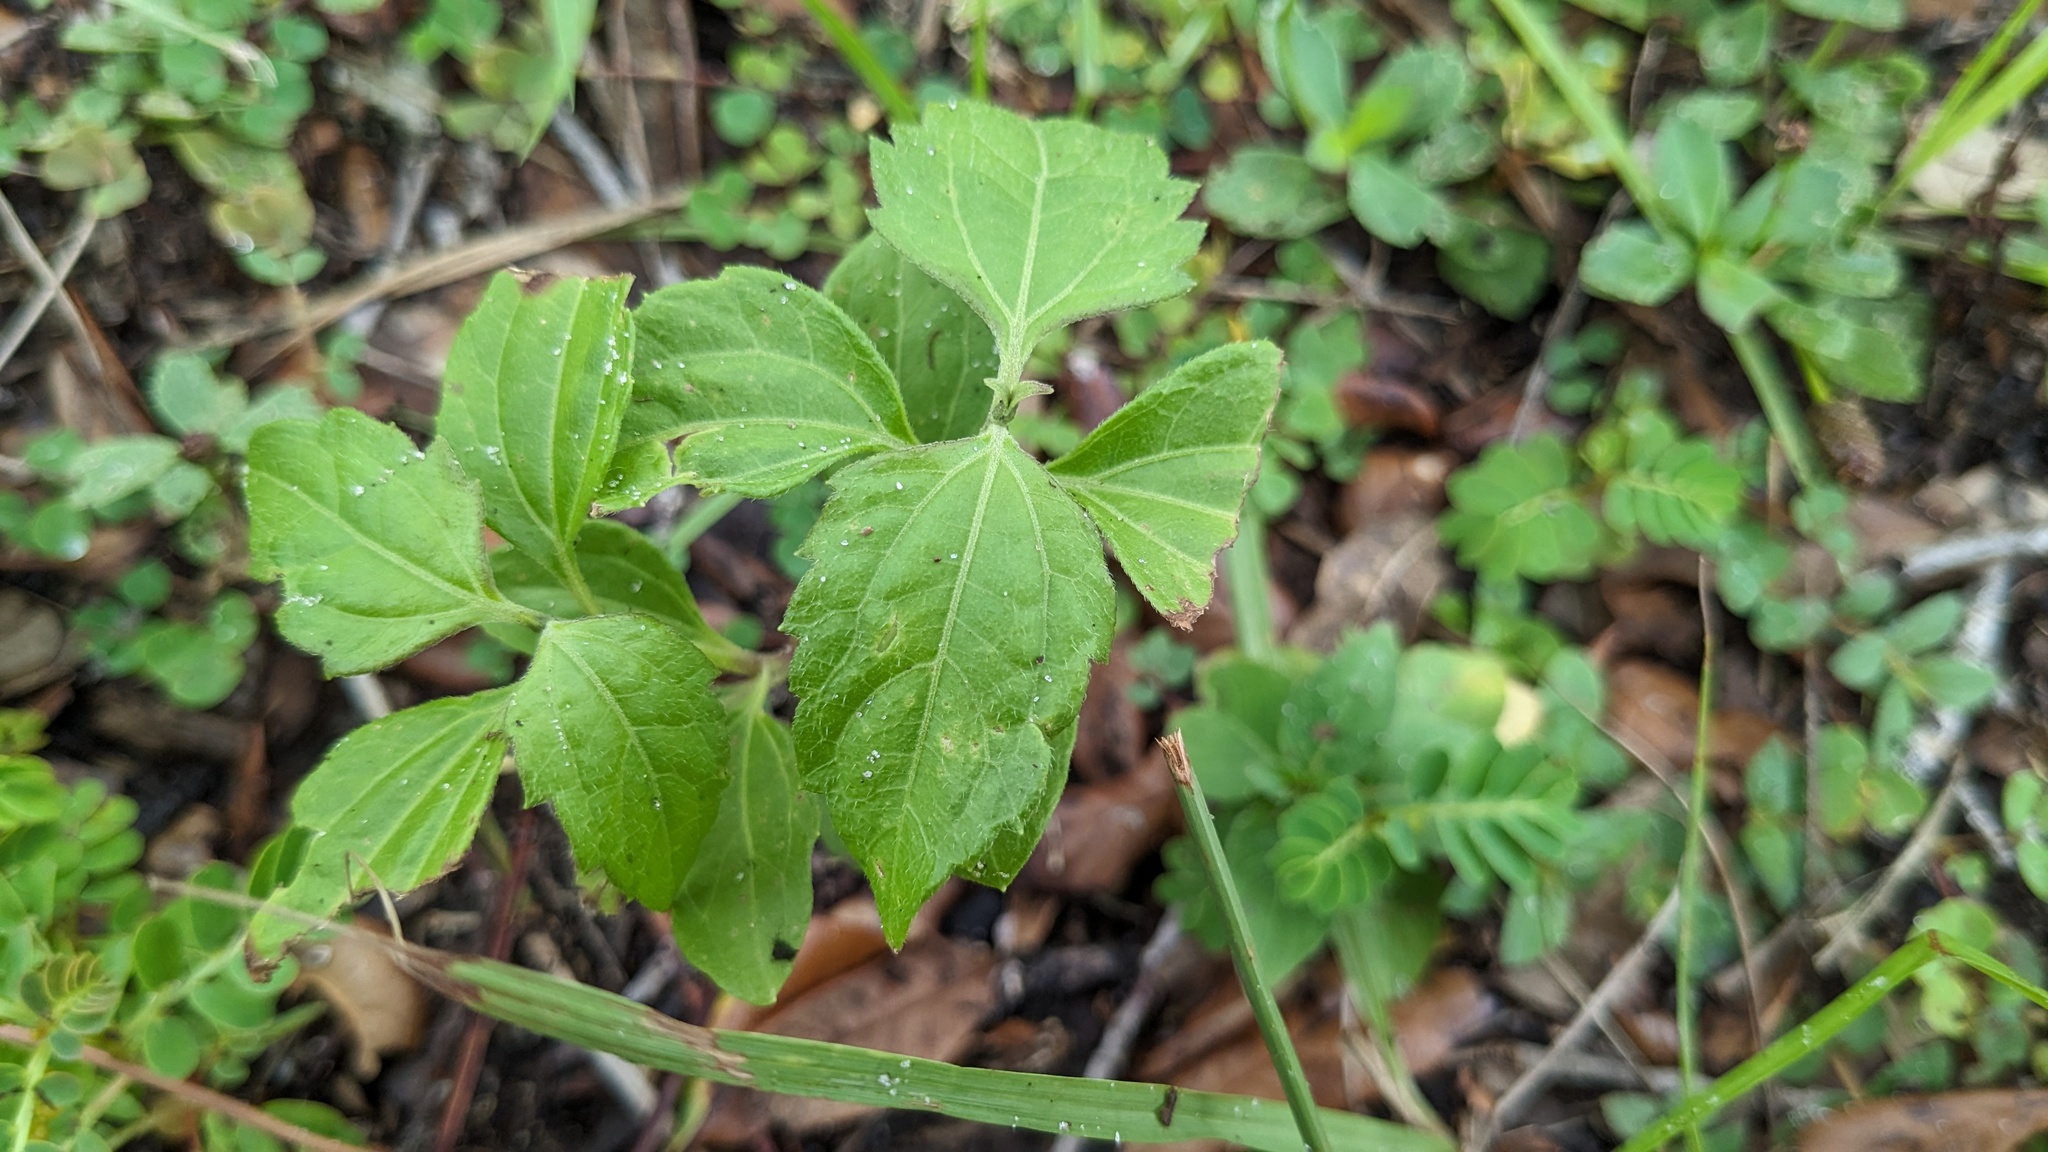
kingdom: Plantae
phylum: Tracheophyta
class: Magnoliopsida
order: Asterales
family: Asteraceae
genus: Chromolaena
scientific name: Chromolaena odorata
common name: Siamweed
